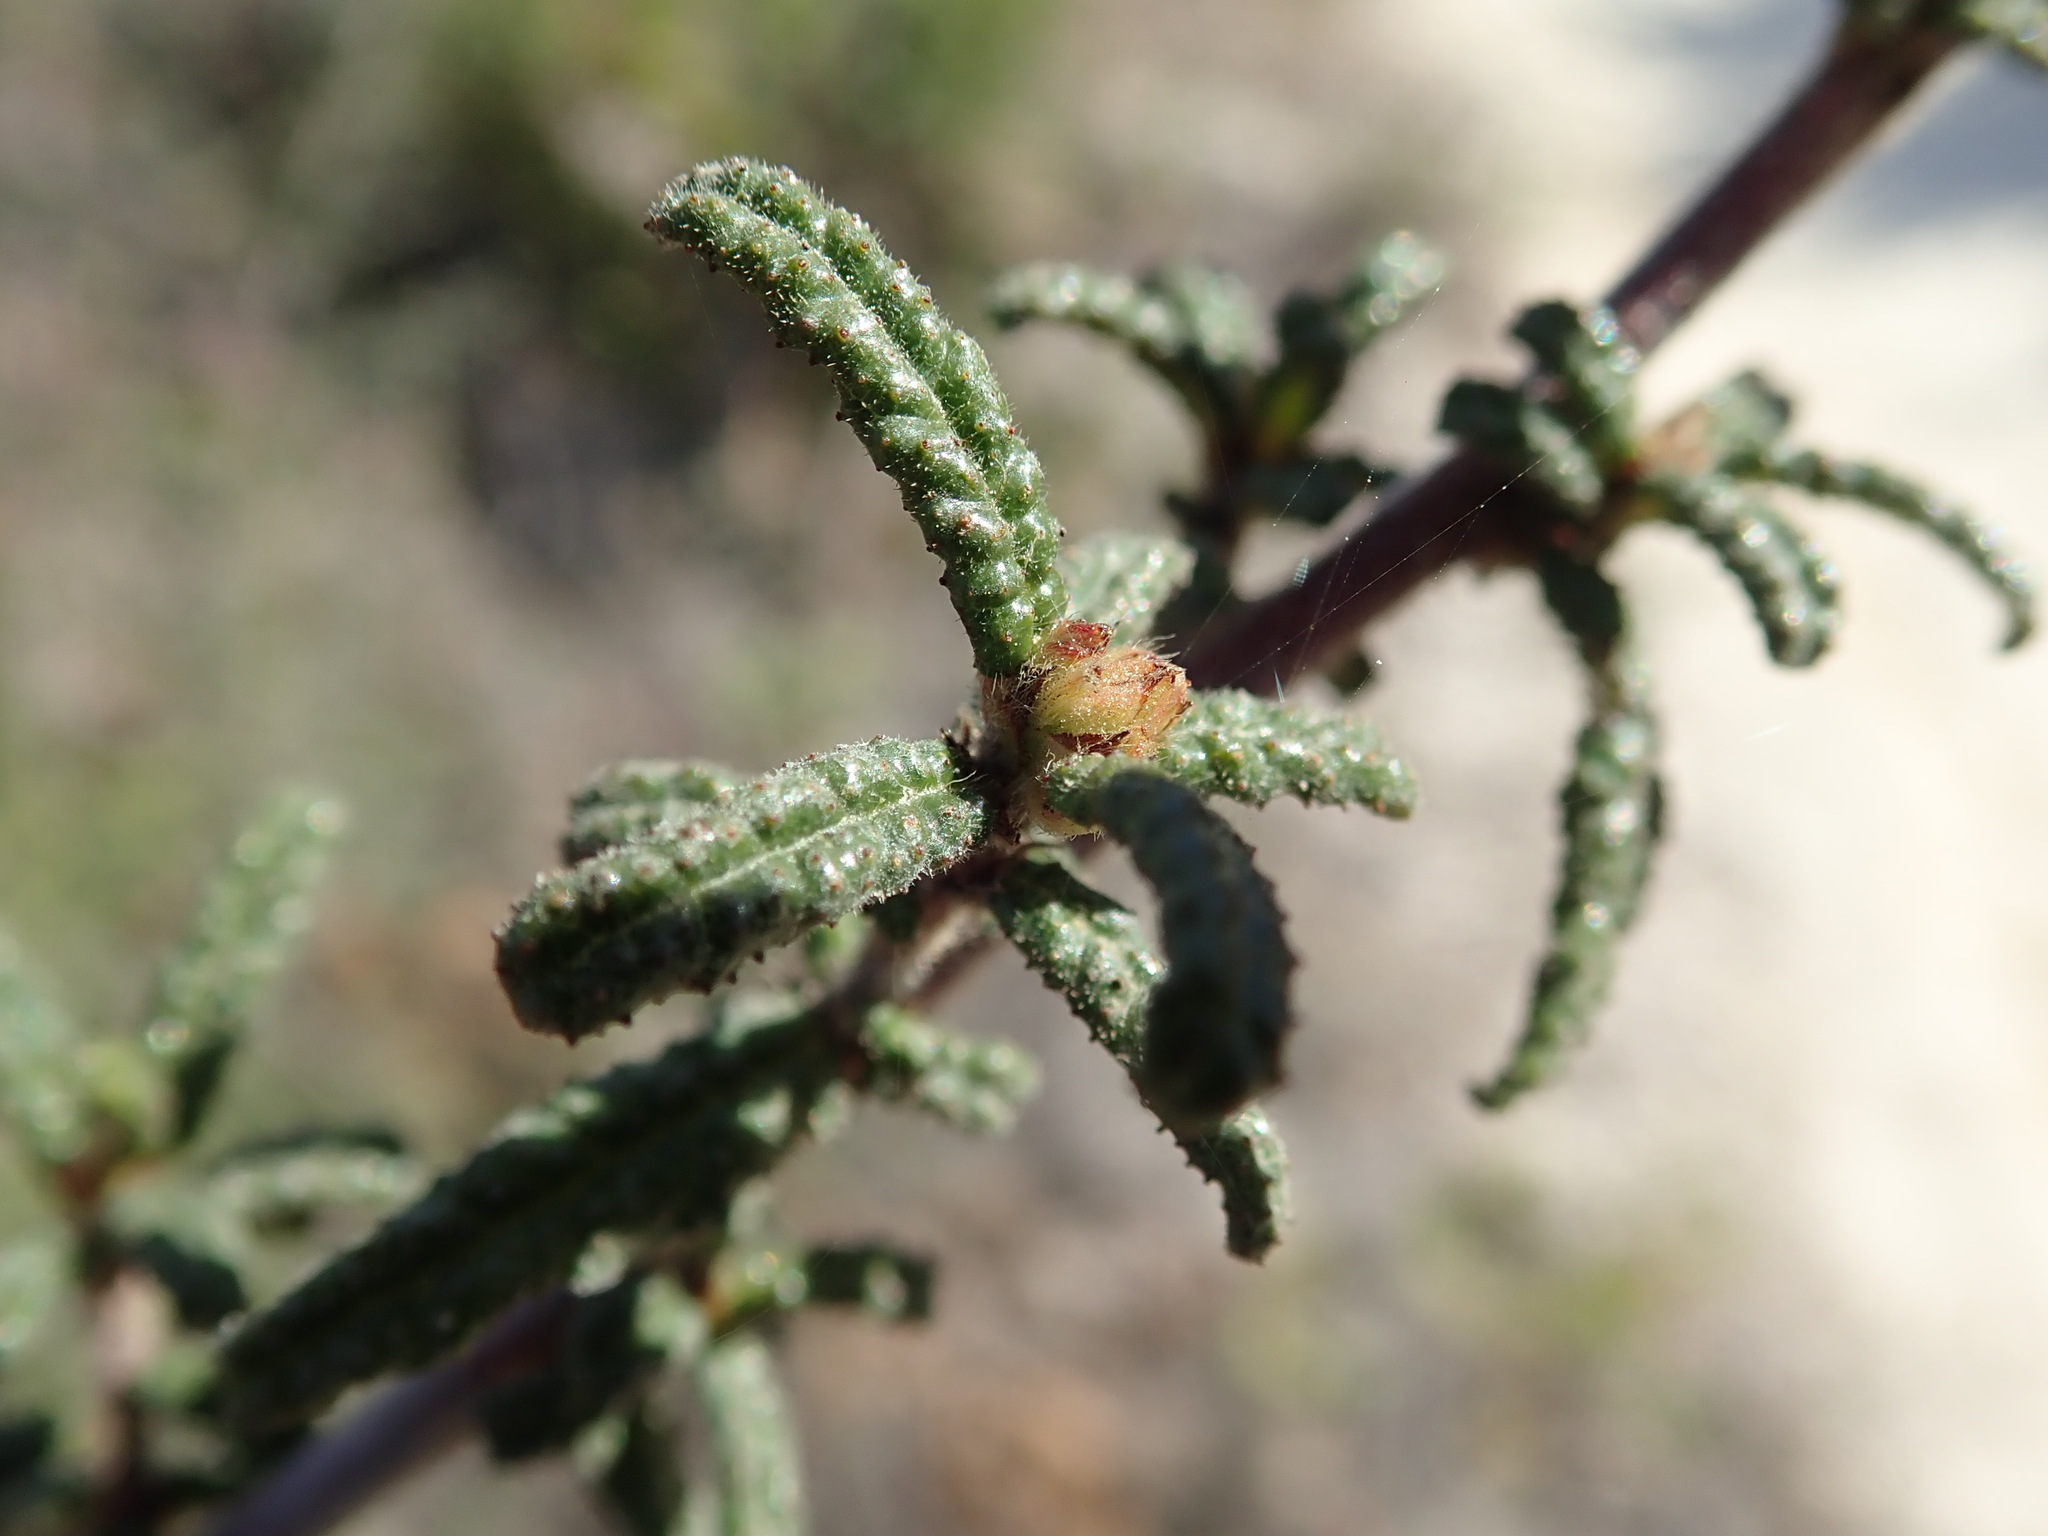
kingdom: Plantae
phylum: Tracheophyta
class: Magnoliopsida
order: Rosales
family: Rhamnaceae
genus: Ceanothus
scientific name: Ceanothus papillosus
